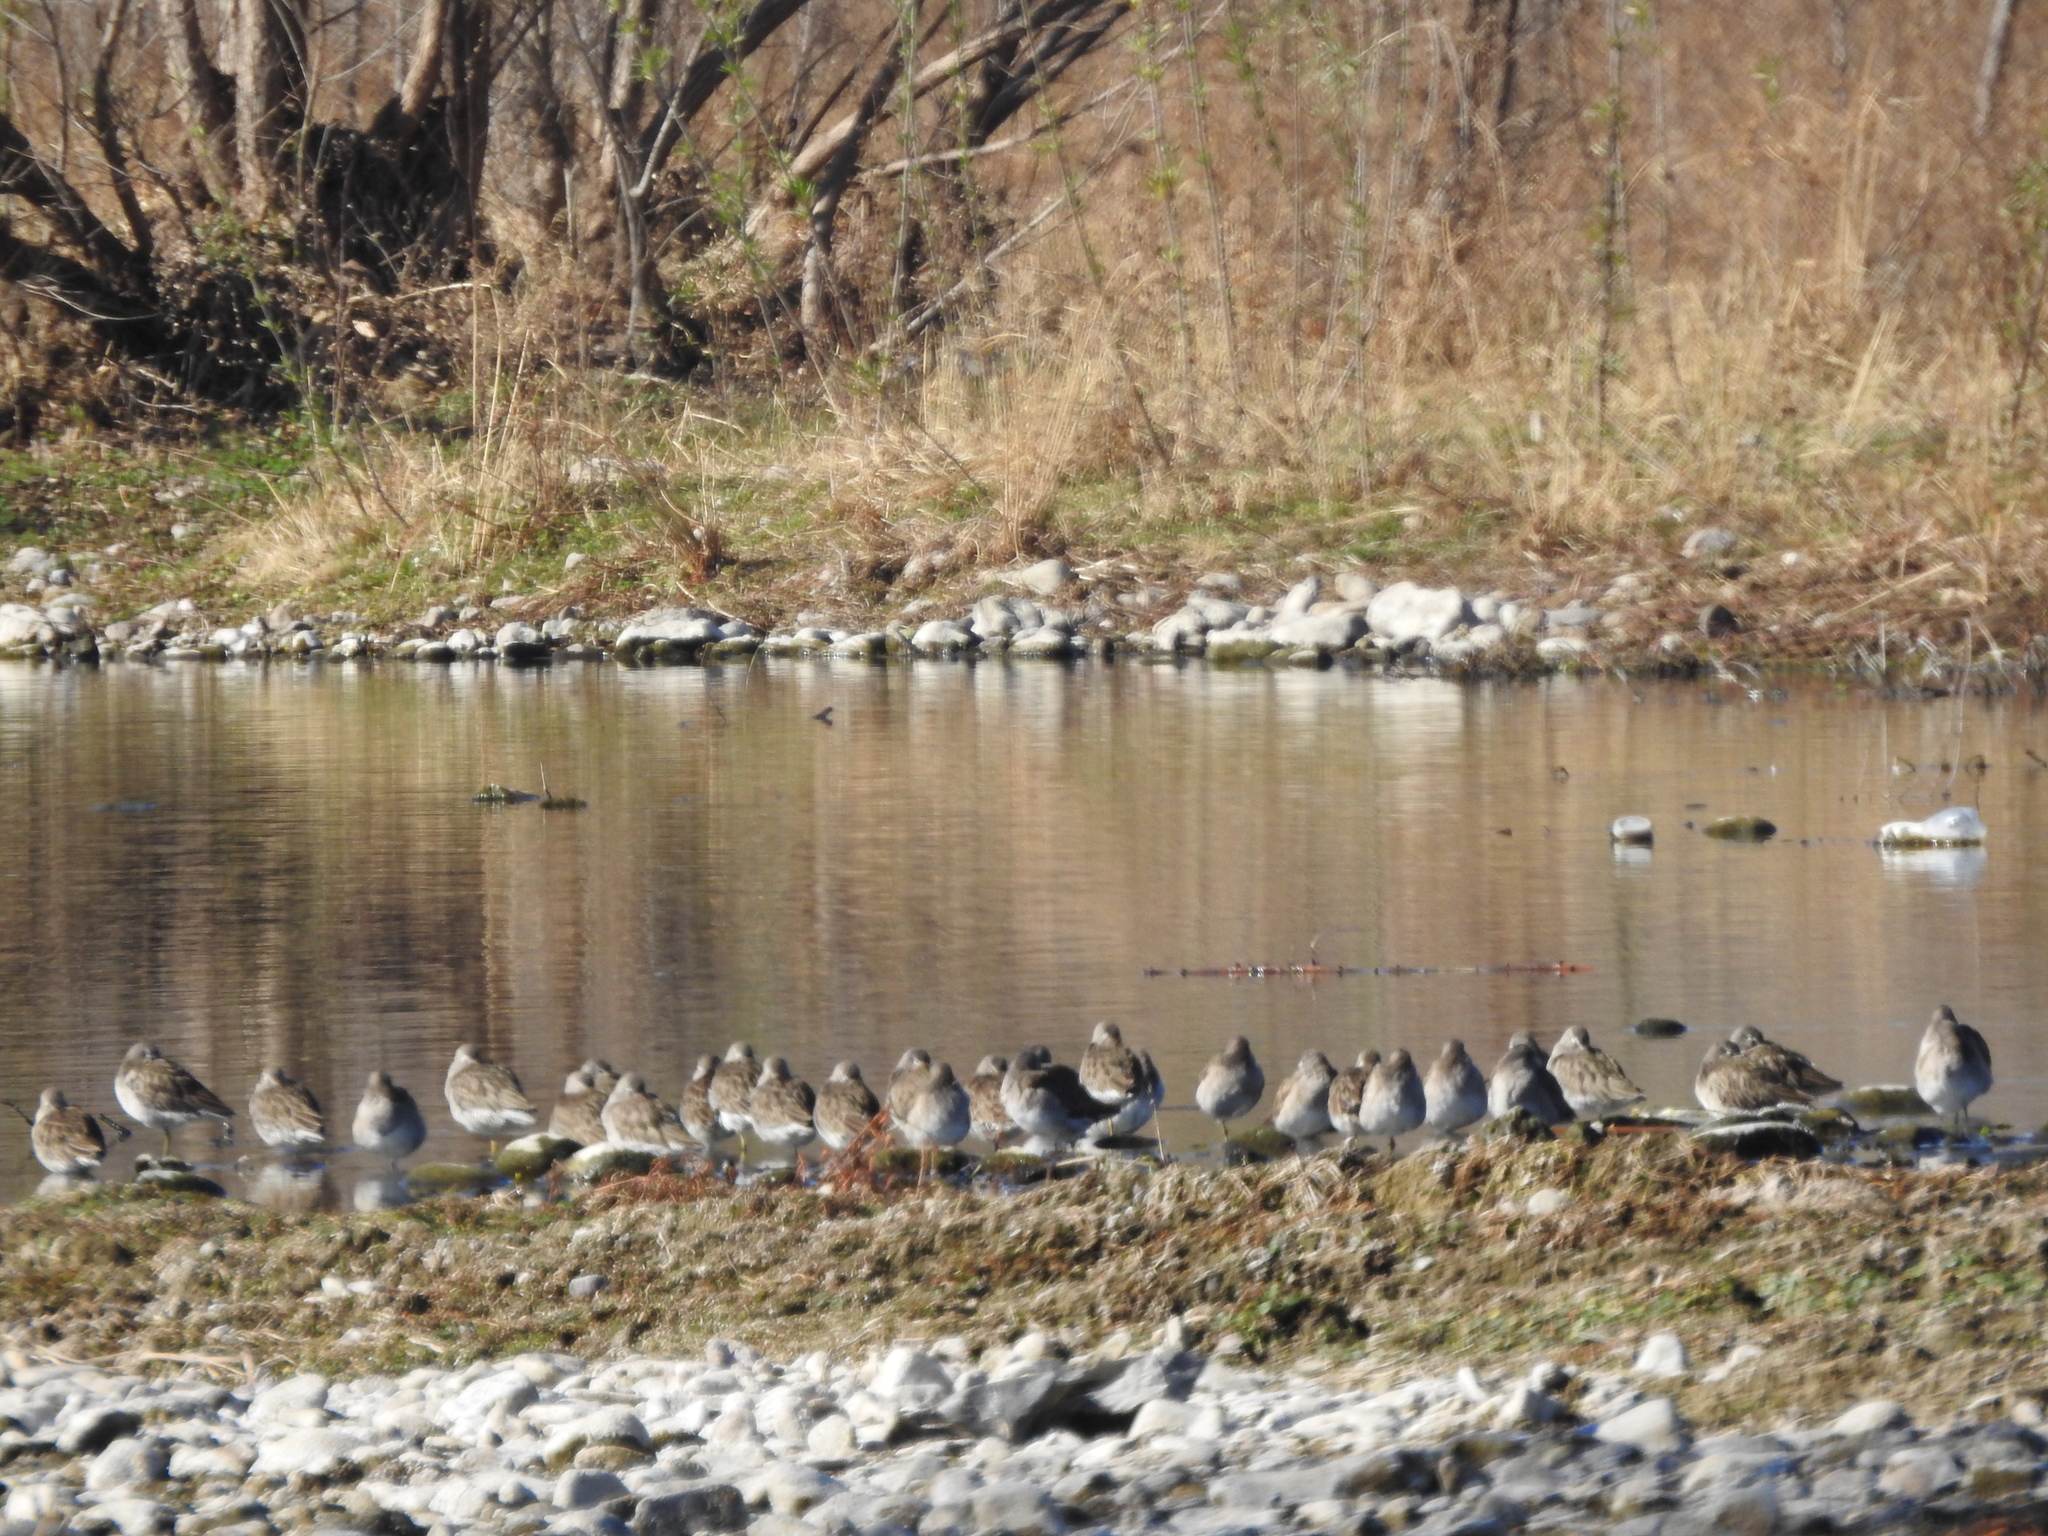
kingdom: Animalia
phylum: Chordata
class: Aves
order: Charadriiformes
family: Scolopacidae
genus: Limnodromus
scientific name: Limnodromus
